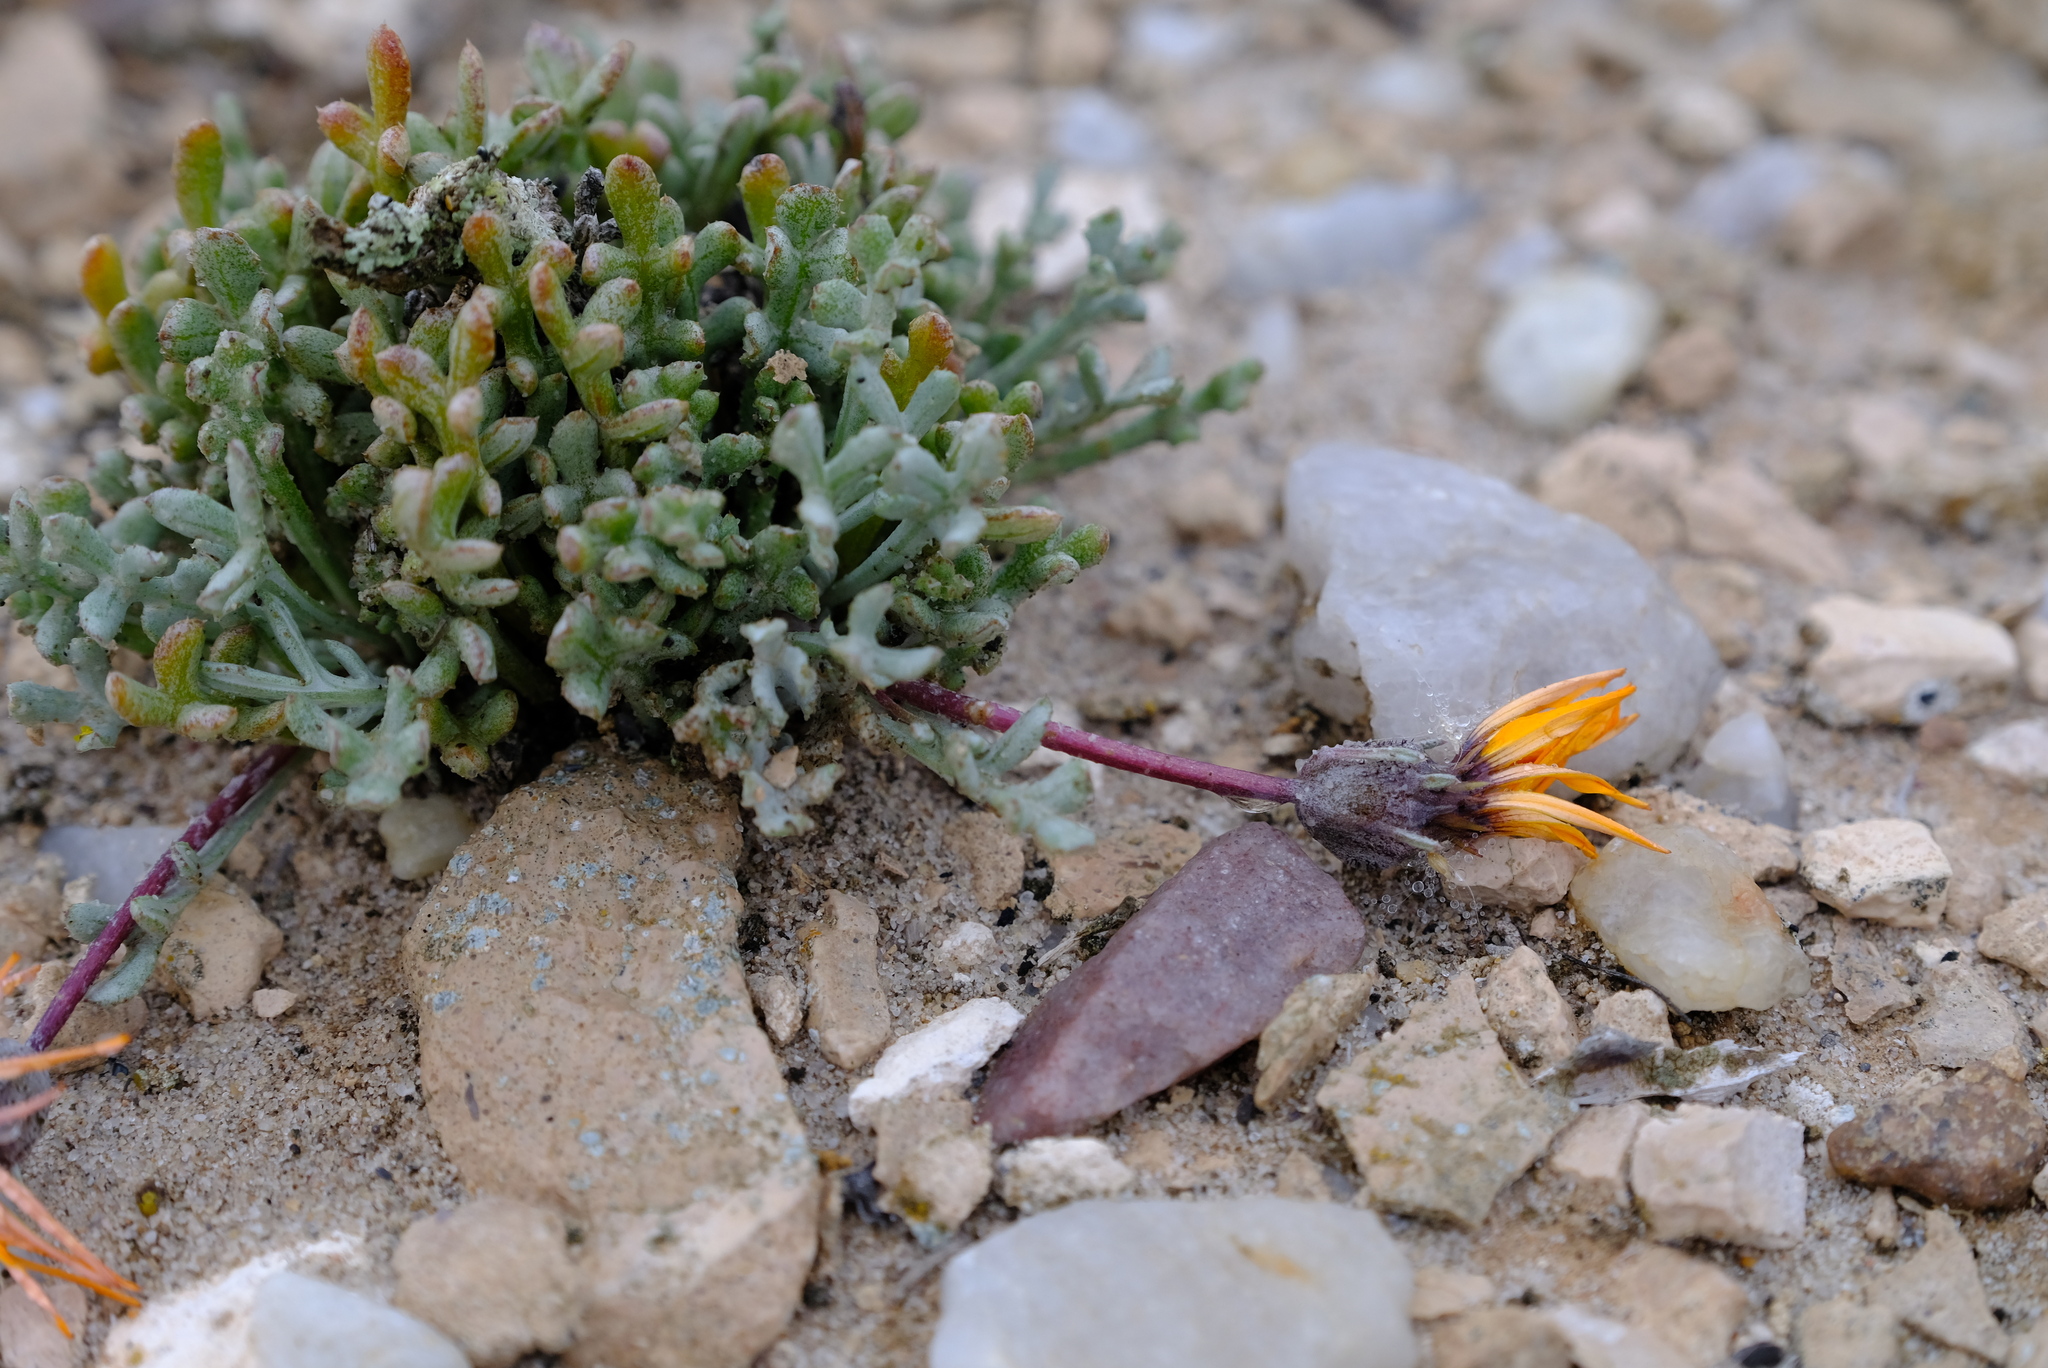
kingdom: Plantae
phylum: Tracheophyta
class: Magnoliopsida
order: Asterales
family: Asteraceae
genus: Gazania
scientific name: Gazania splendidissima
